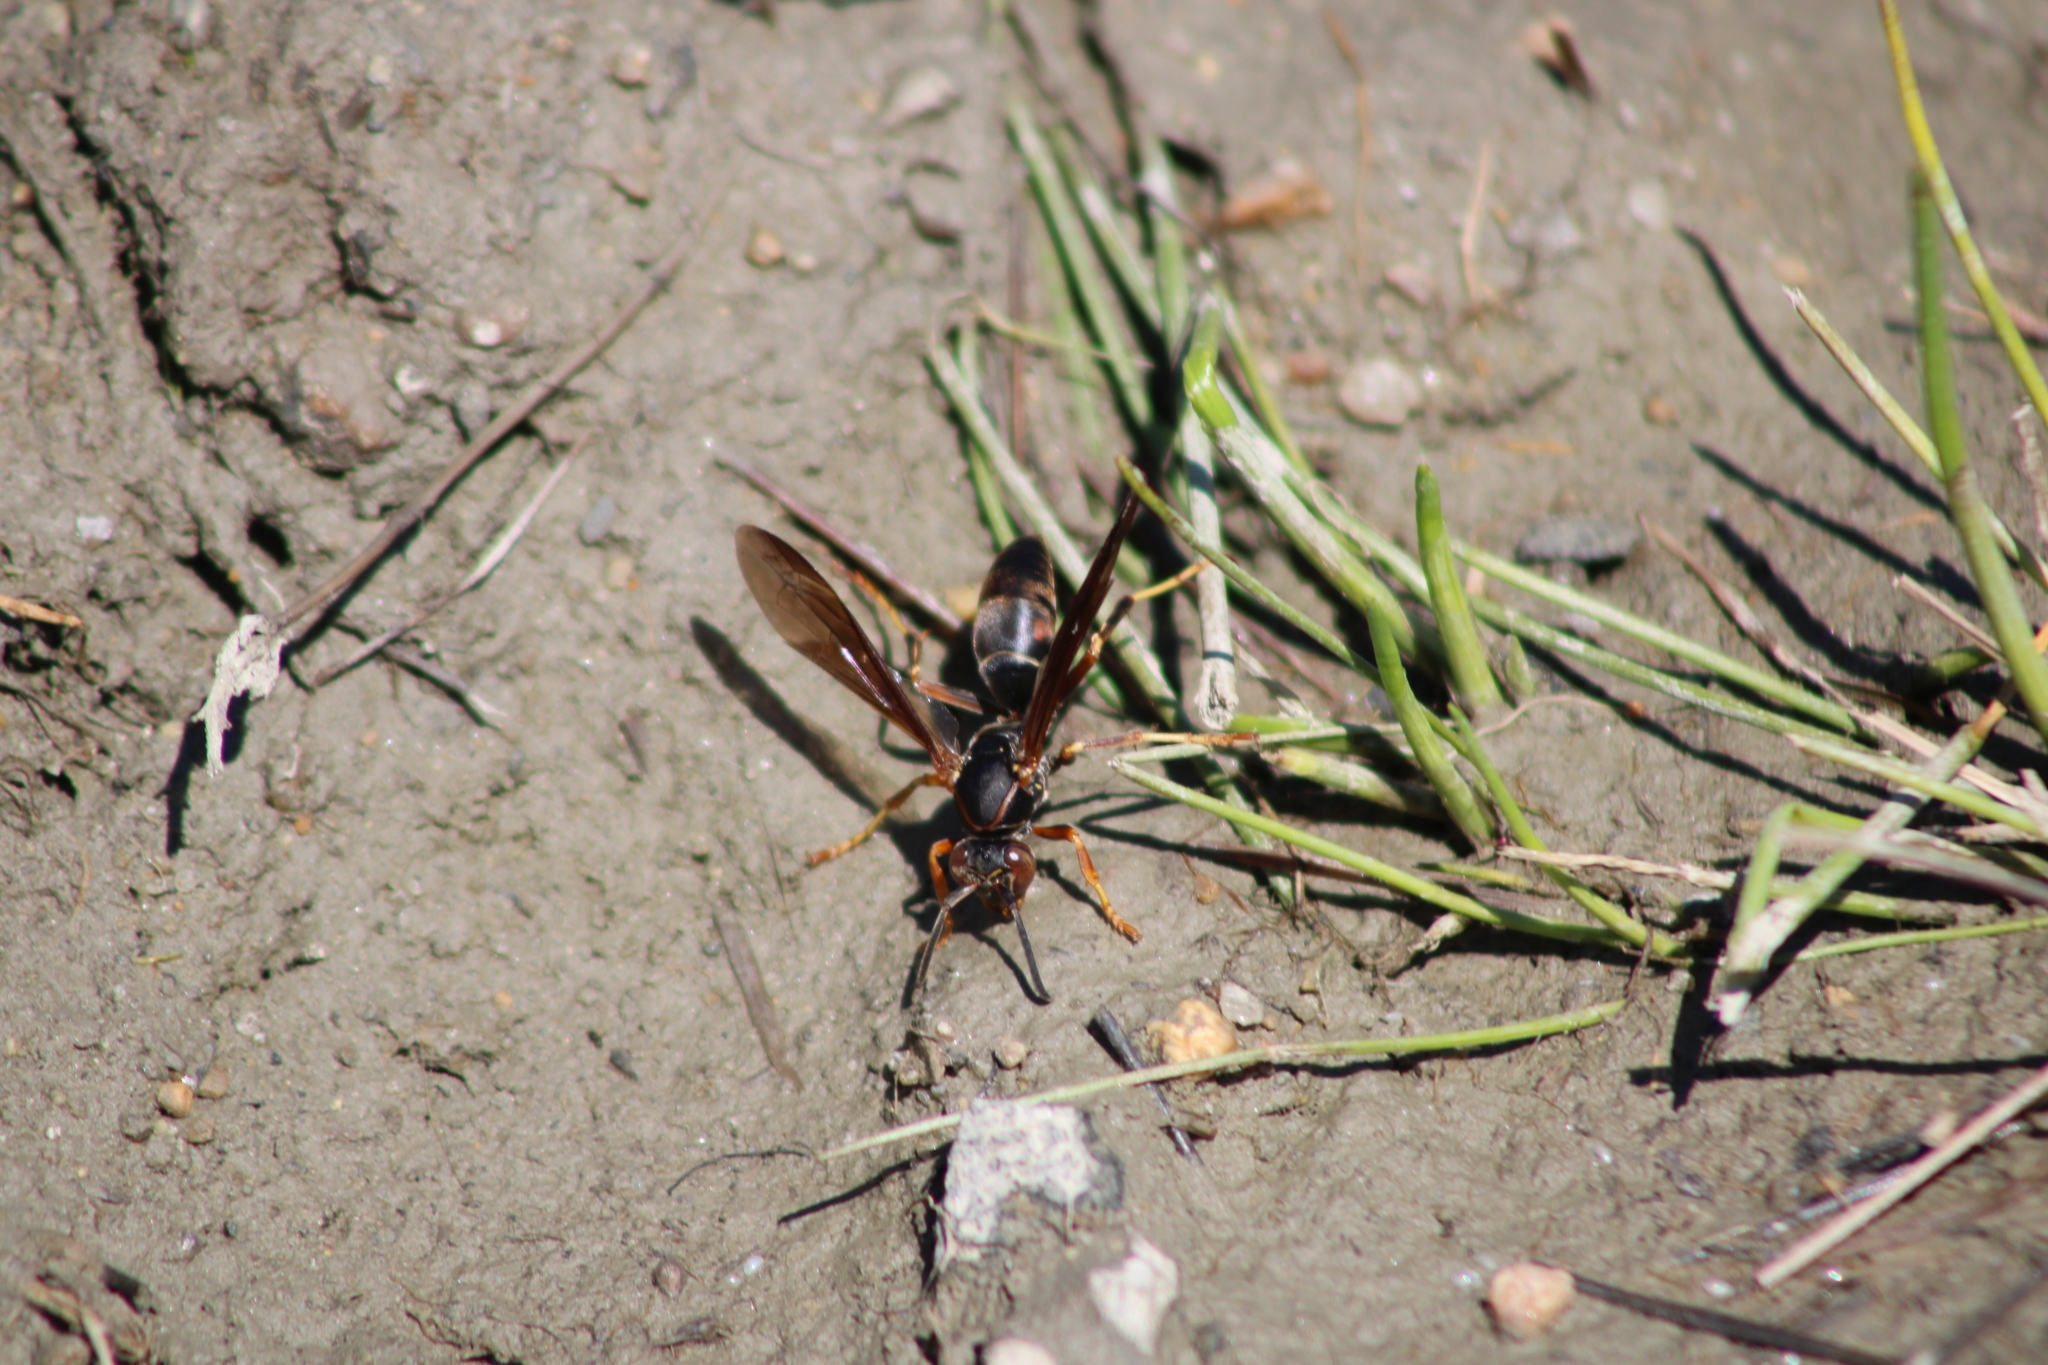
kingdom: Animalia
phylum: Arthropoda
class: Insecta
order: Hymenoptera
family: Eumenidae
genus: Polistes
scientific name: Polistes fuscatus
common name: Dark paper wasp
